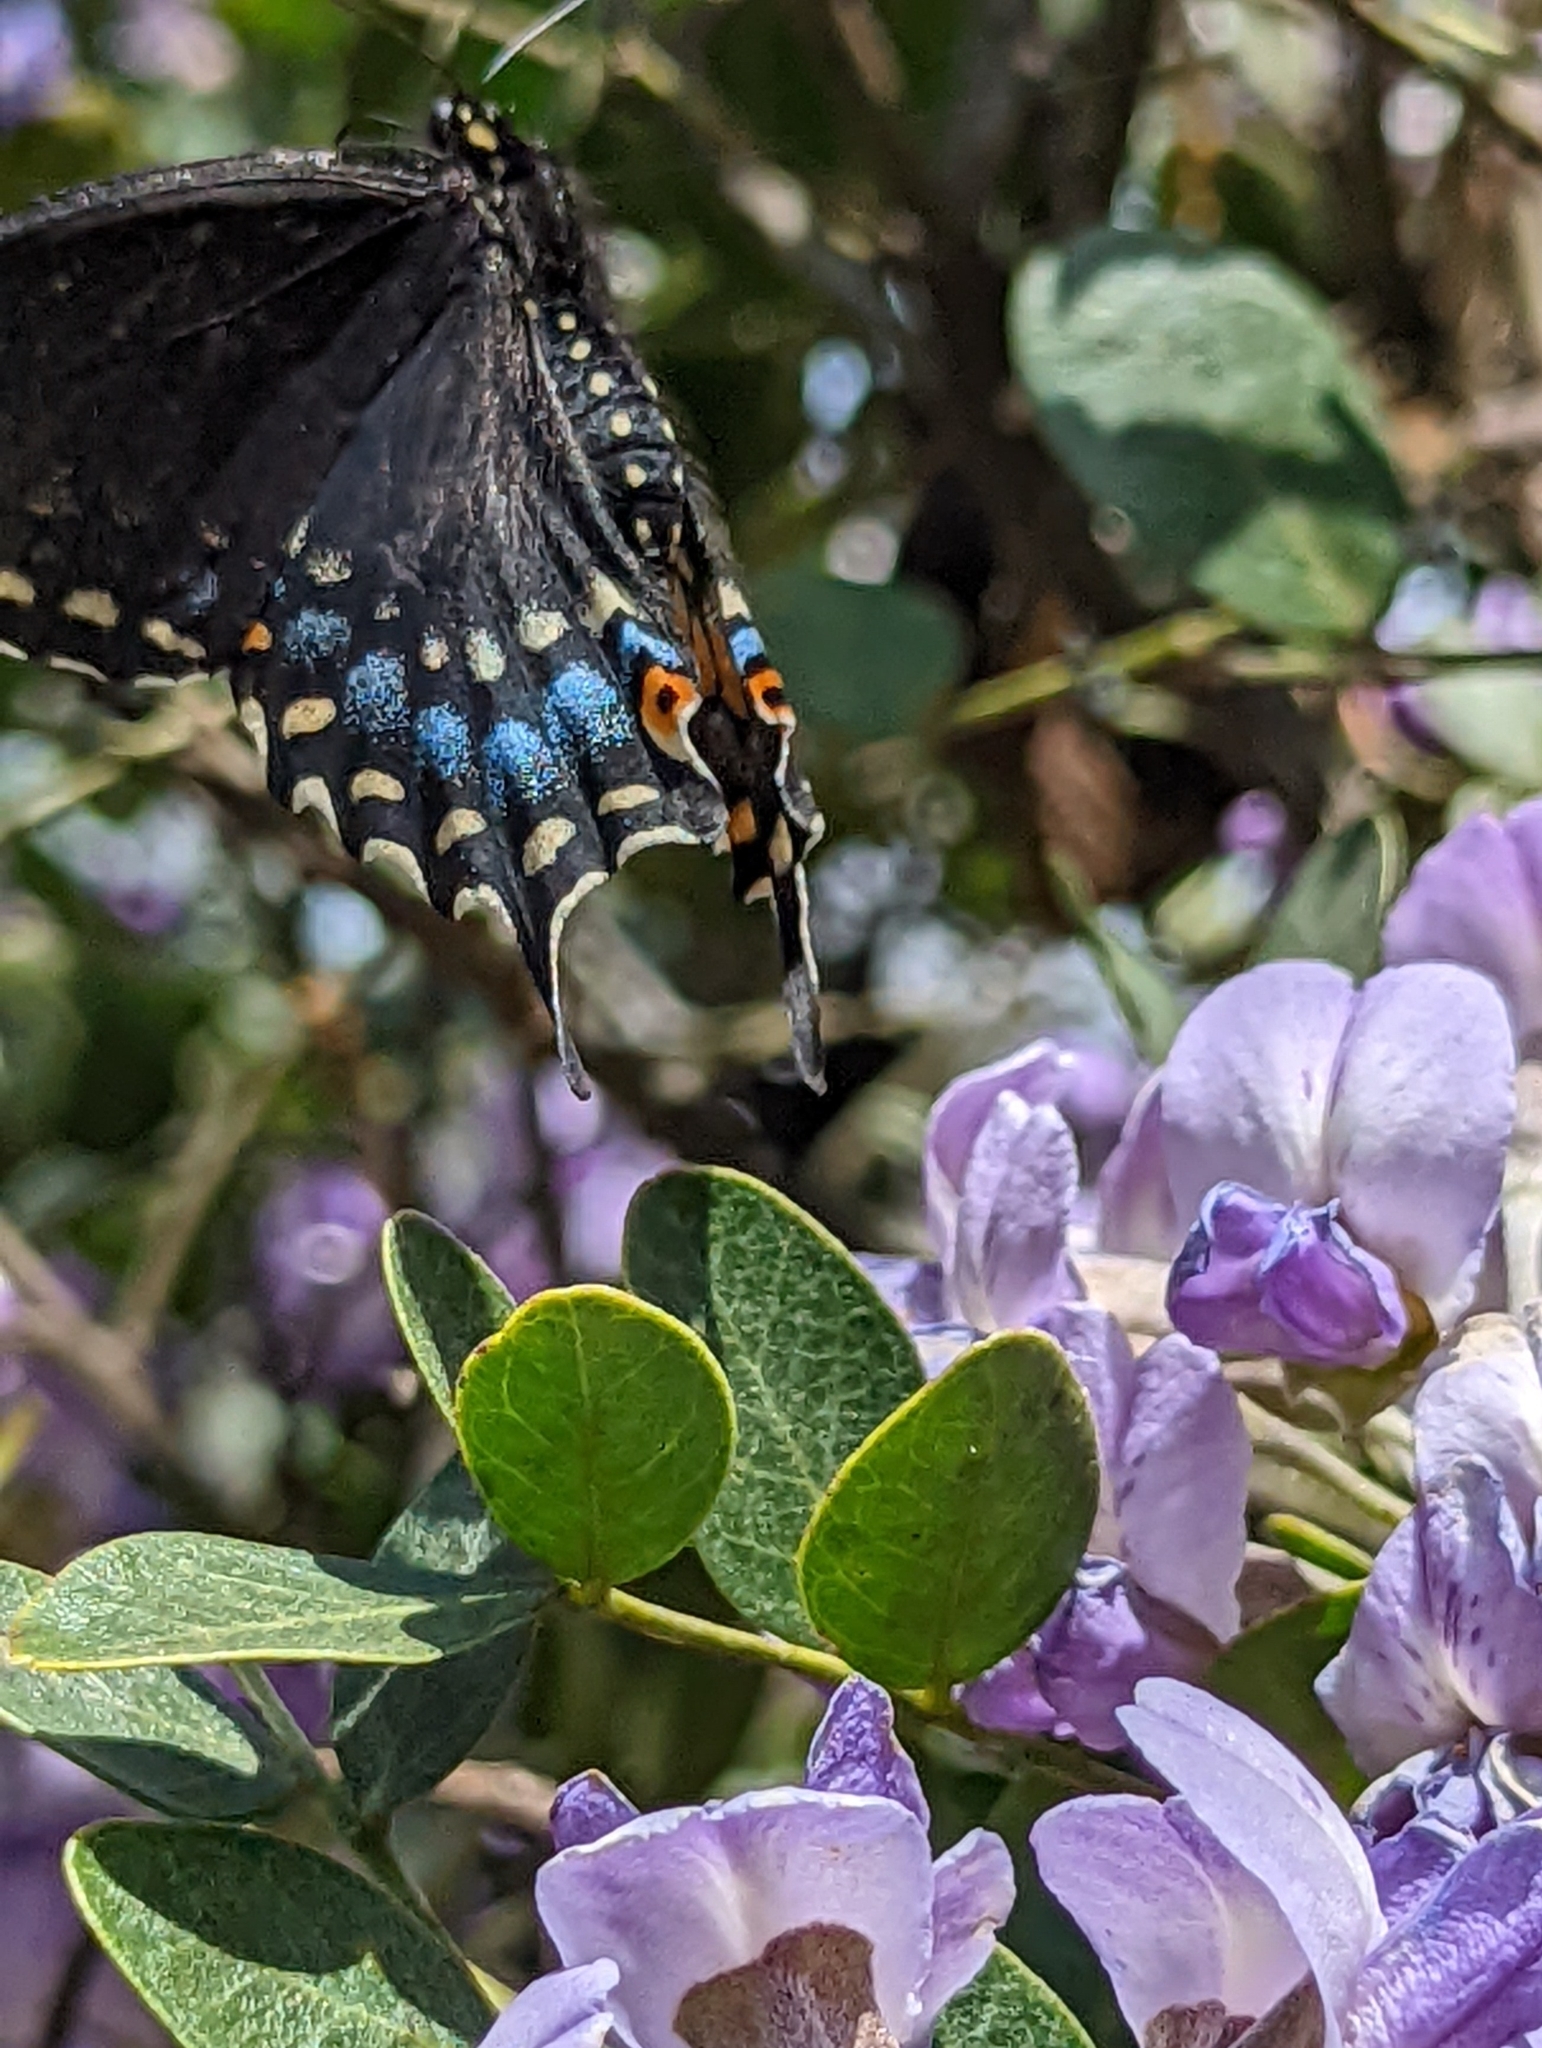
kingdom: Animalia
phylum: Arthropoda
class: Insecta
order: Lepidoptera
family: Papilionidae
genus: Papilio
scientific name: Papilio polyxenes
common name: Black swallowtail
